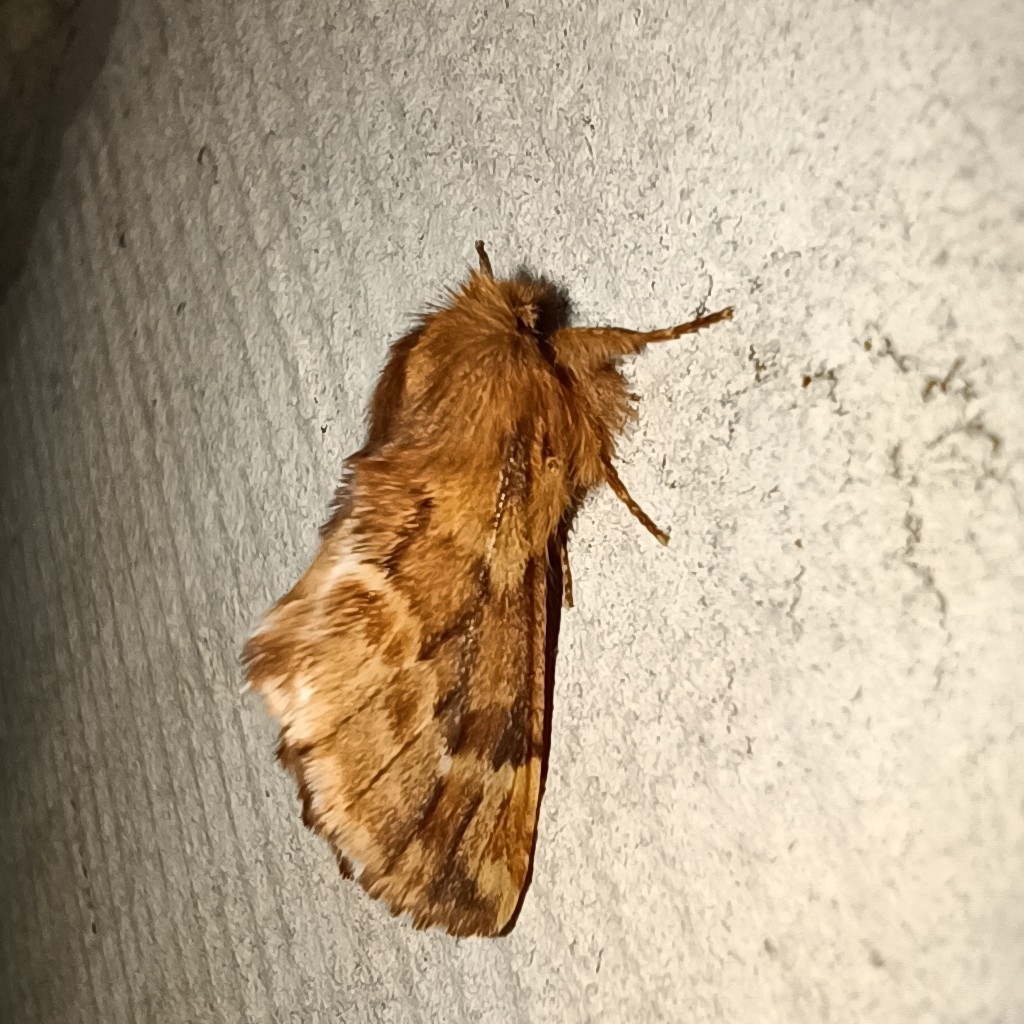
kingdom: Animalia
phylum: Arthropoda
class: Insecta
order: Lepidoptera
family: Notodontidae
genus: Ptilophora
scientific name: Ptilophora plumigera
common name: Plumed prominent
